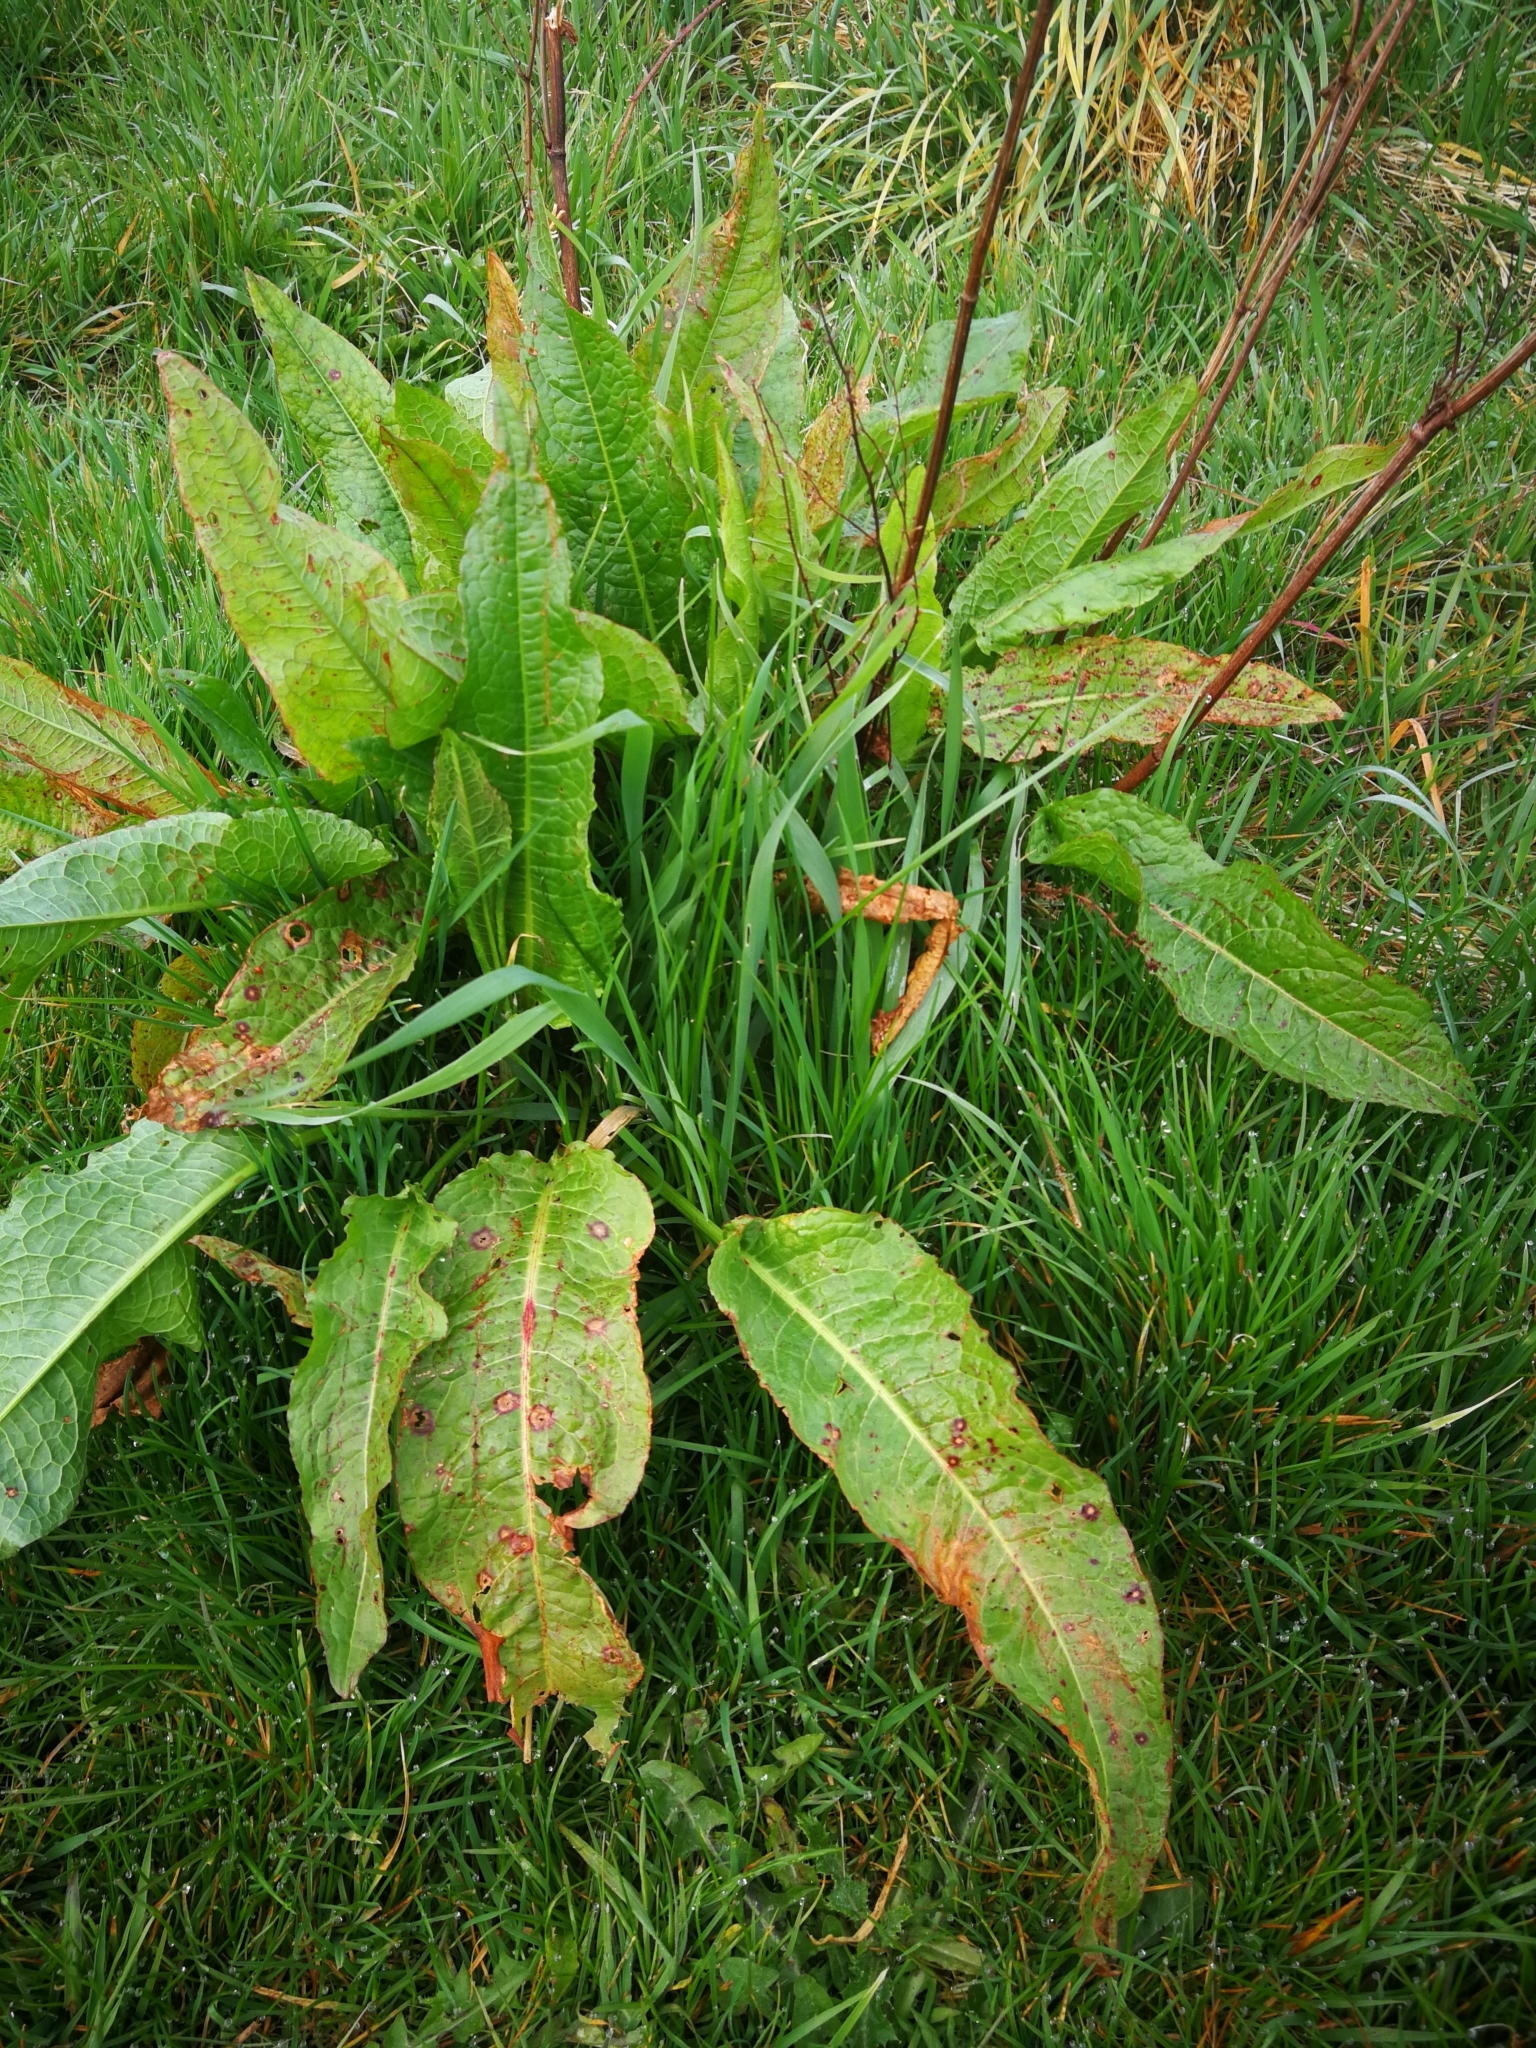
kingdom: Plantae
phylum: Tracheophyta
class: Magnoliopsida
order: Caryophyllales
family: Polygonaceae
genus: Rumex
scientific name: Rumex obtusifolius
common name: Bitter dock
